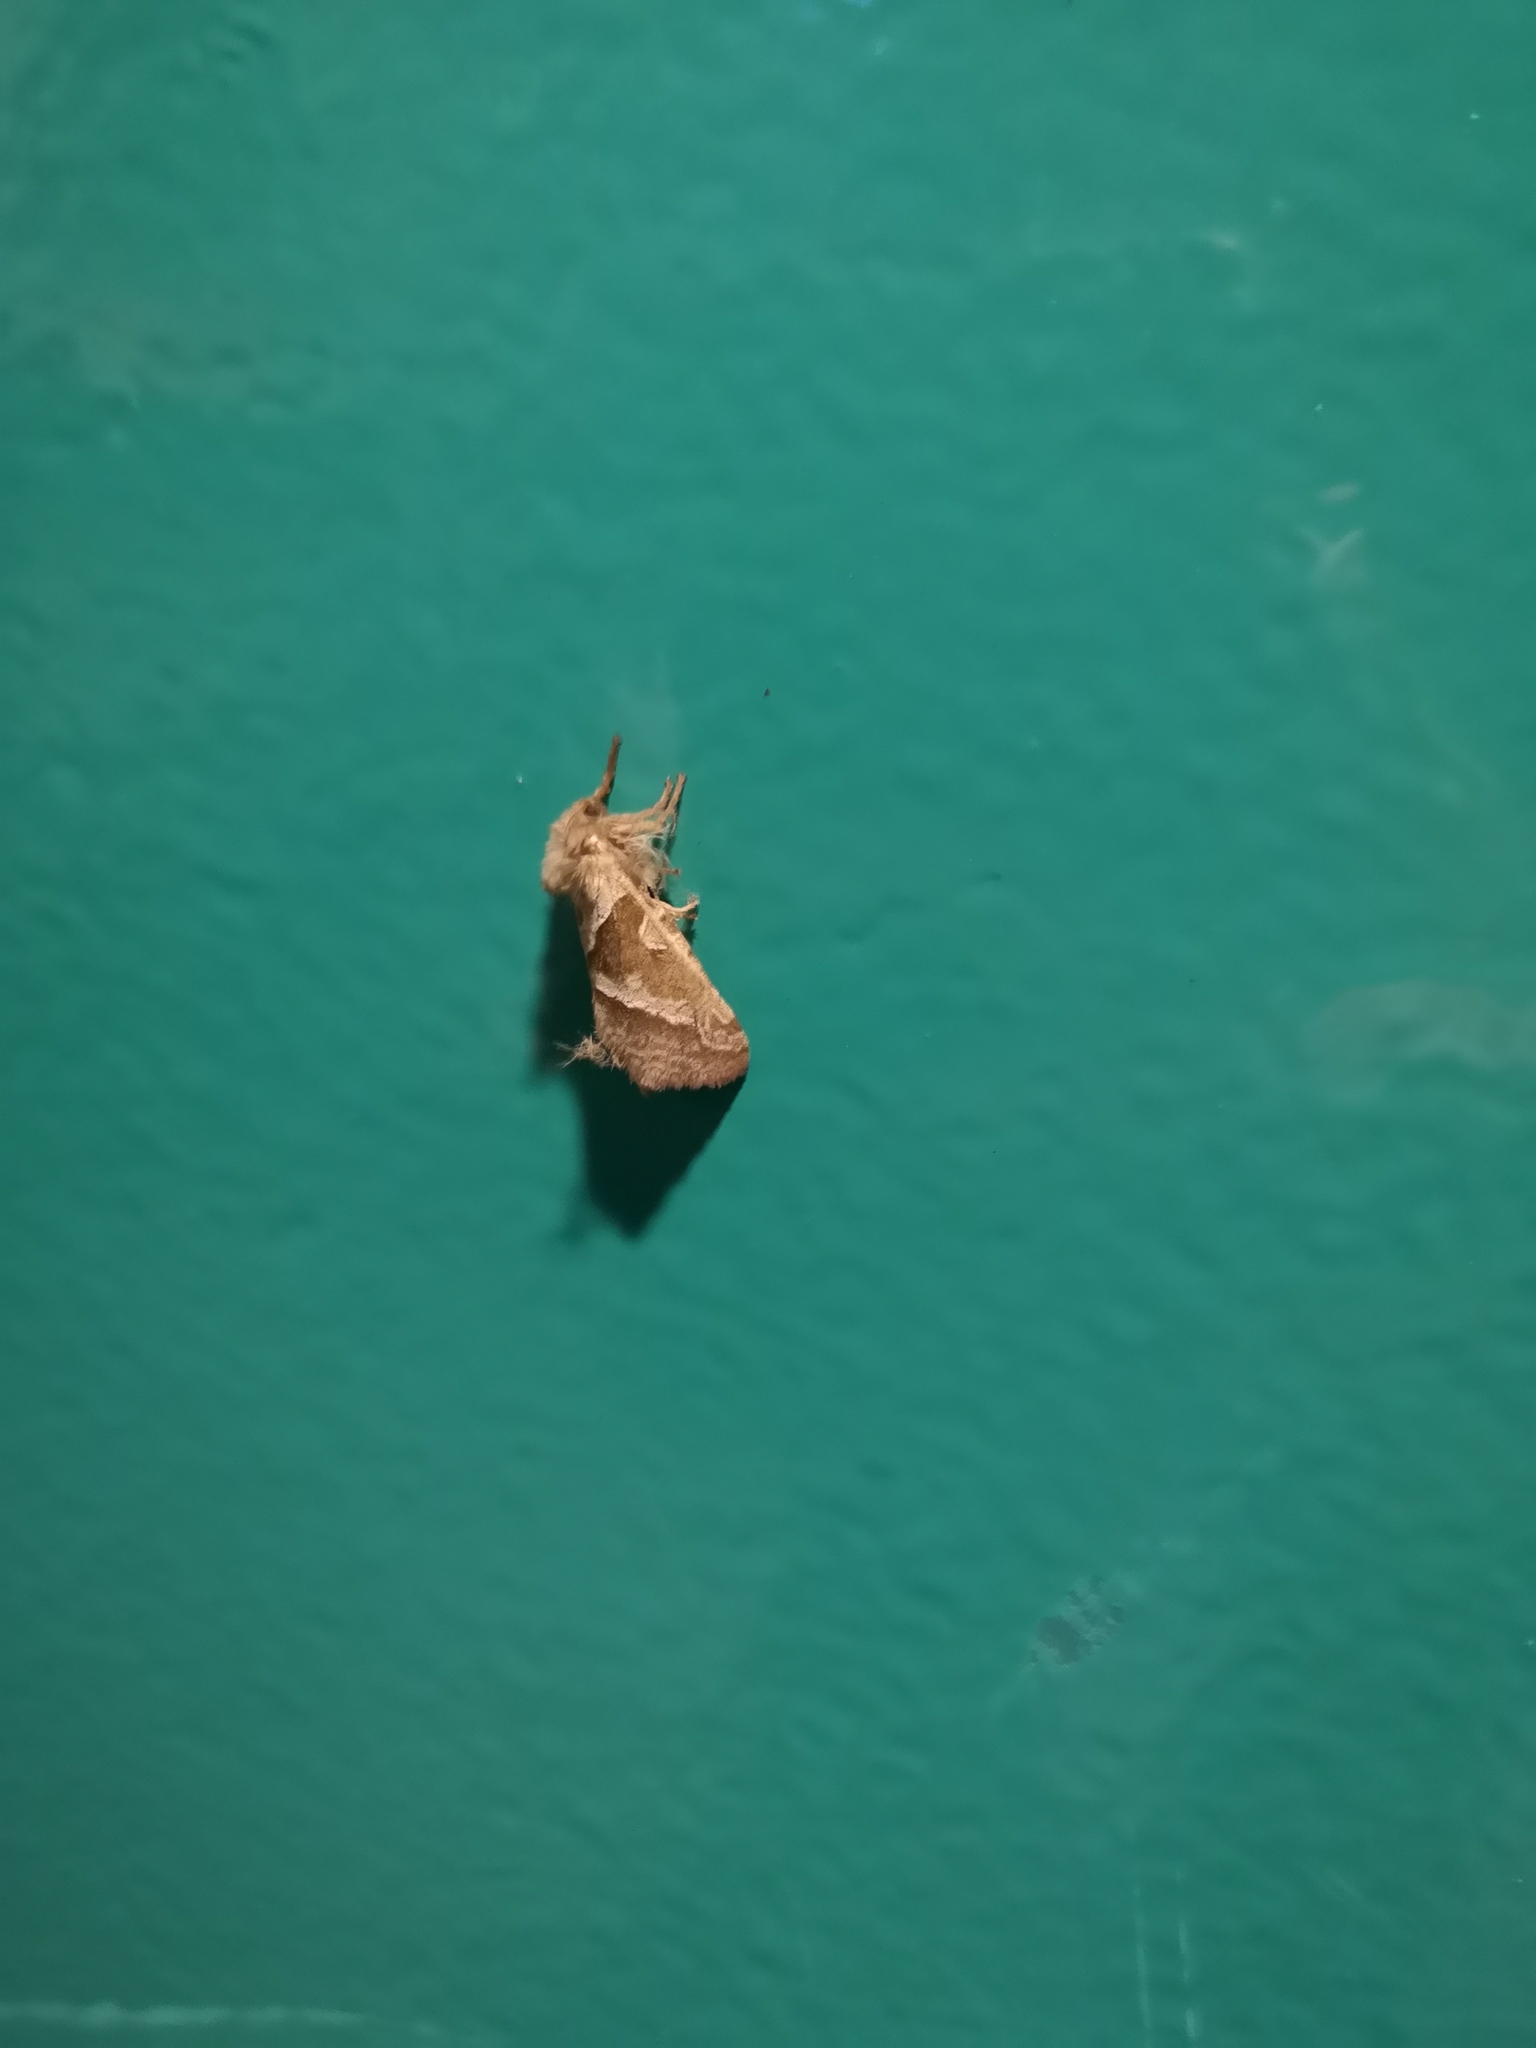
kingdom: Animalia
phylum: Arthropoda
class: Insecta
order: Lepidoptera
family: Hepialidae
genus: Triodia
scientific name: Triodia sylvina
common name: Orange swift
